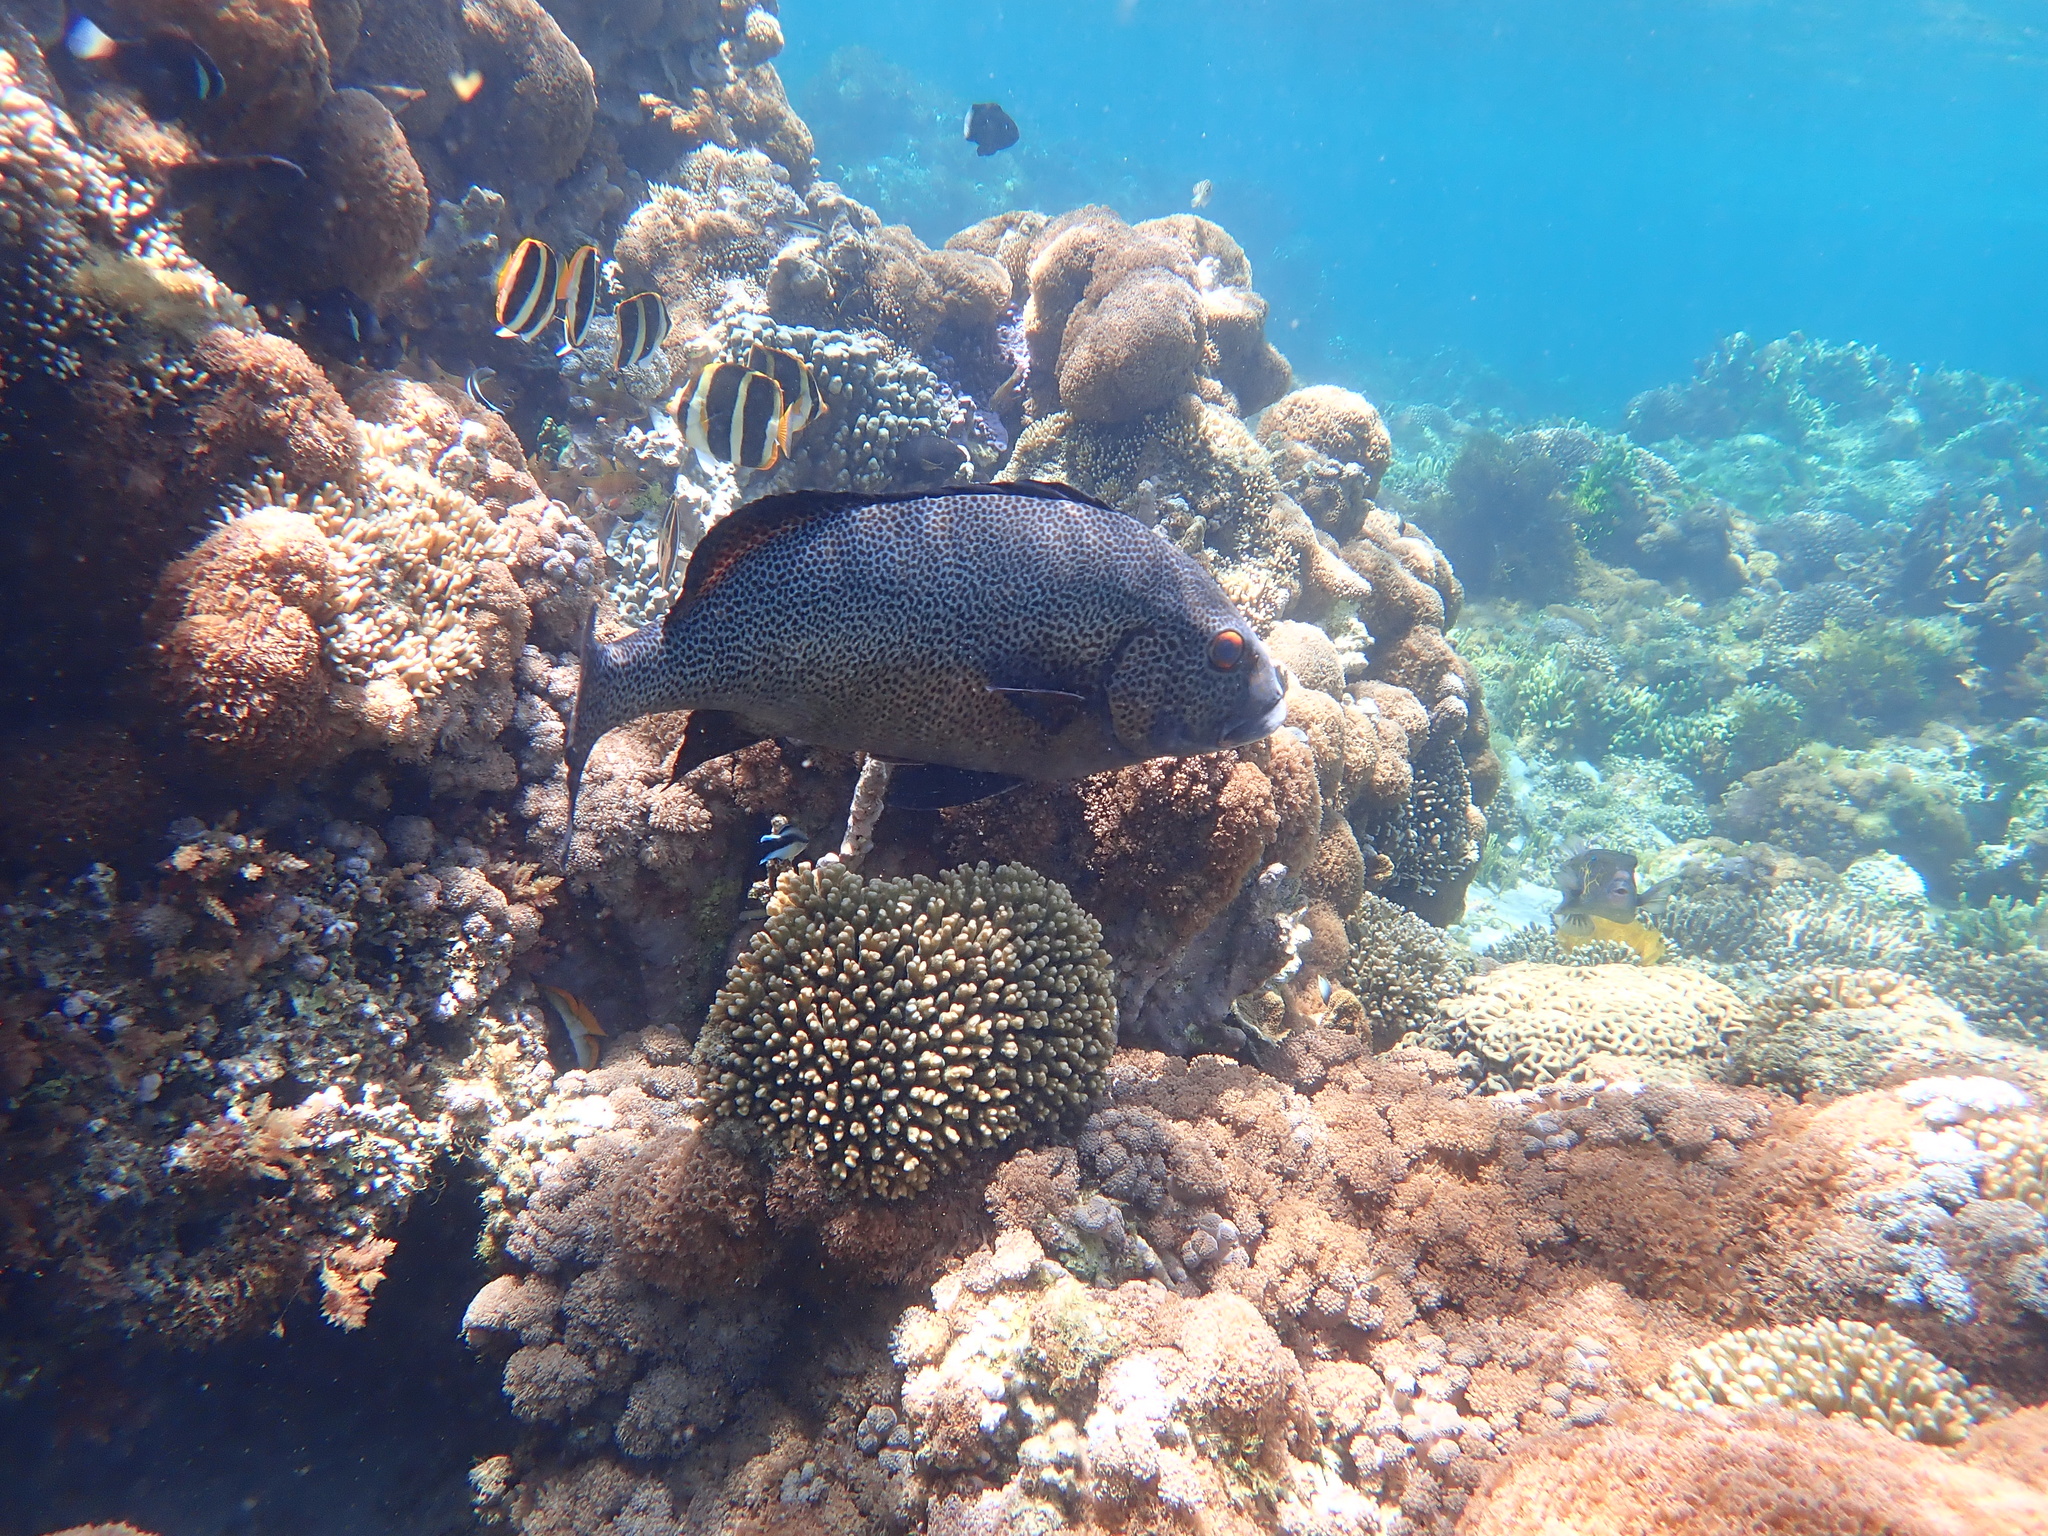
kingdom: Animalia
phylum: Chordata
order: Perciformes
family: Haemulidae
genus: Plectorhinchus
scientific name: Plectorhinchus picus
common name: Spotted sweetlips
